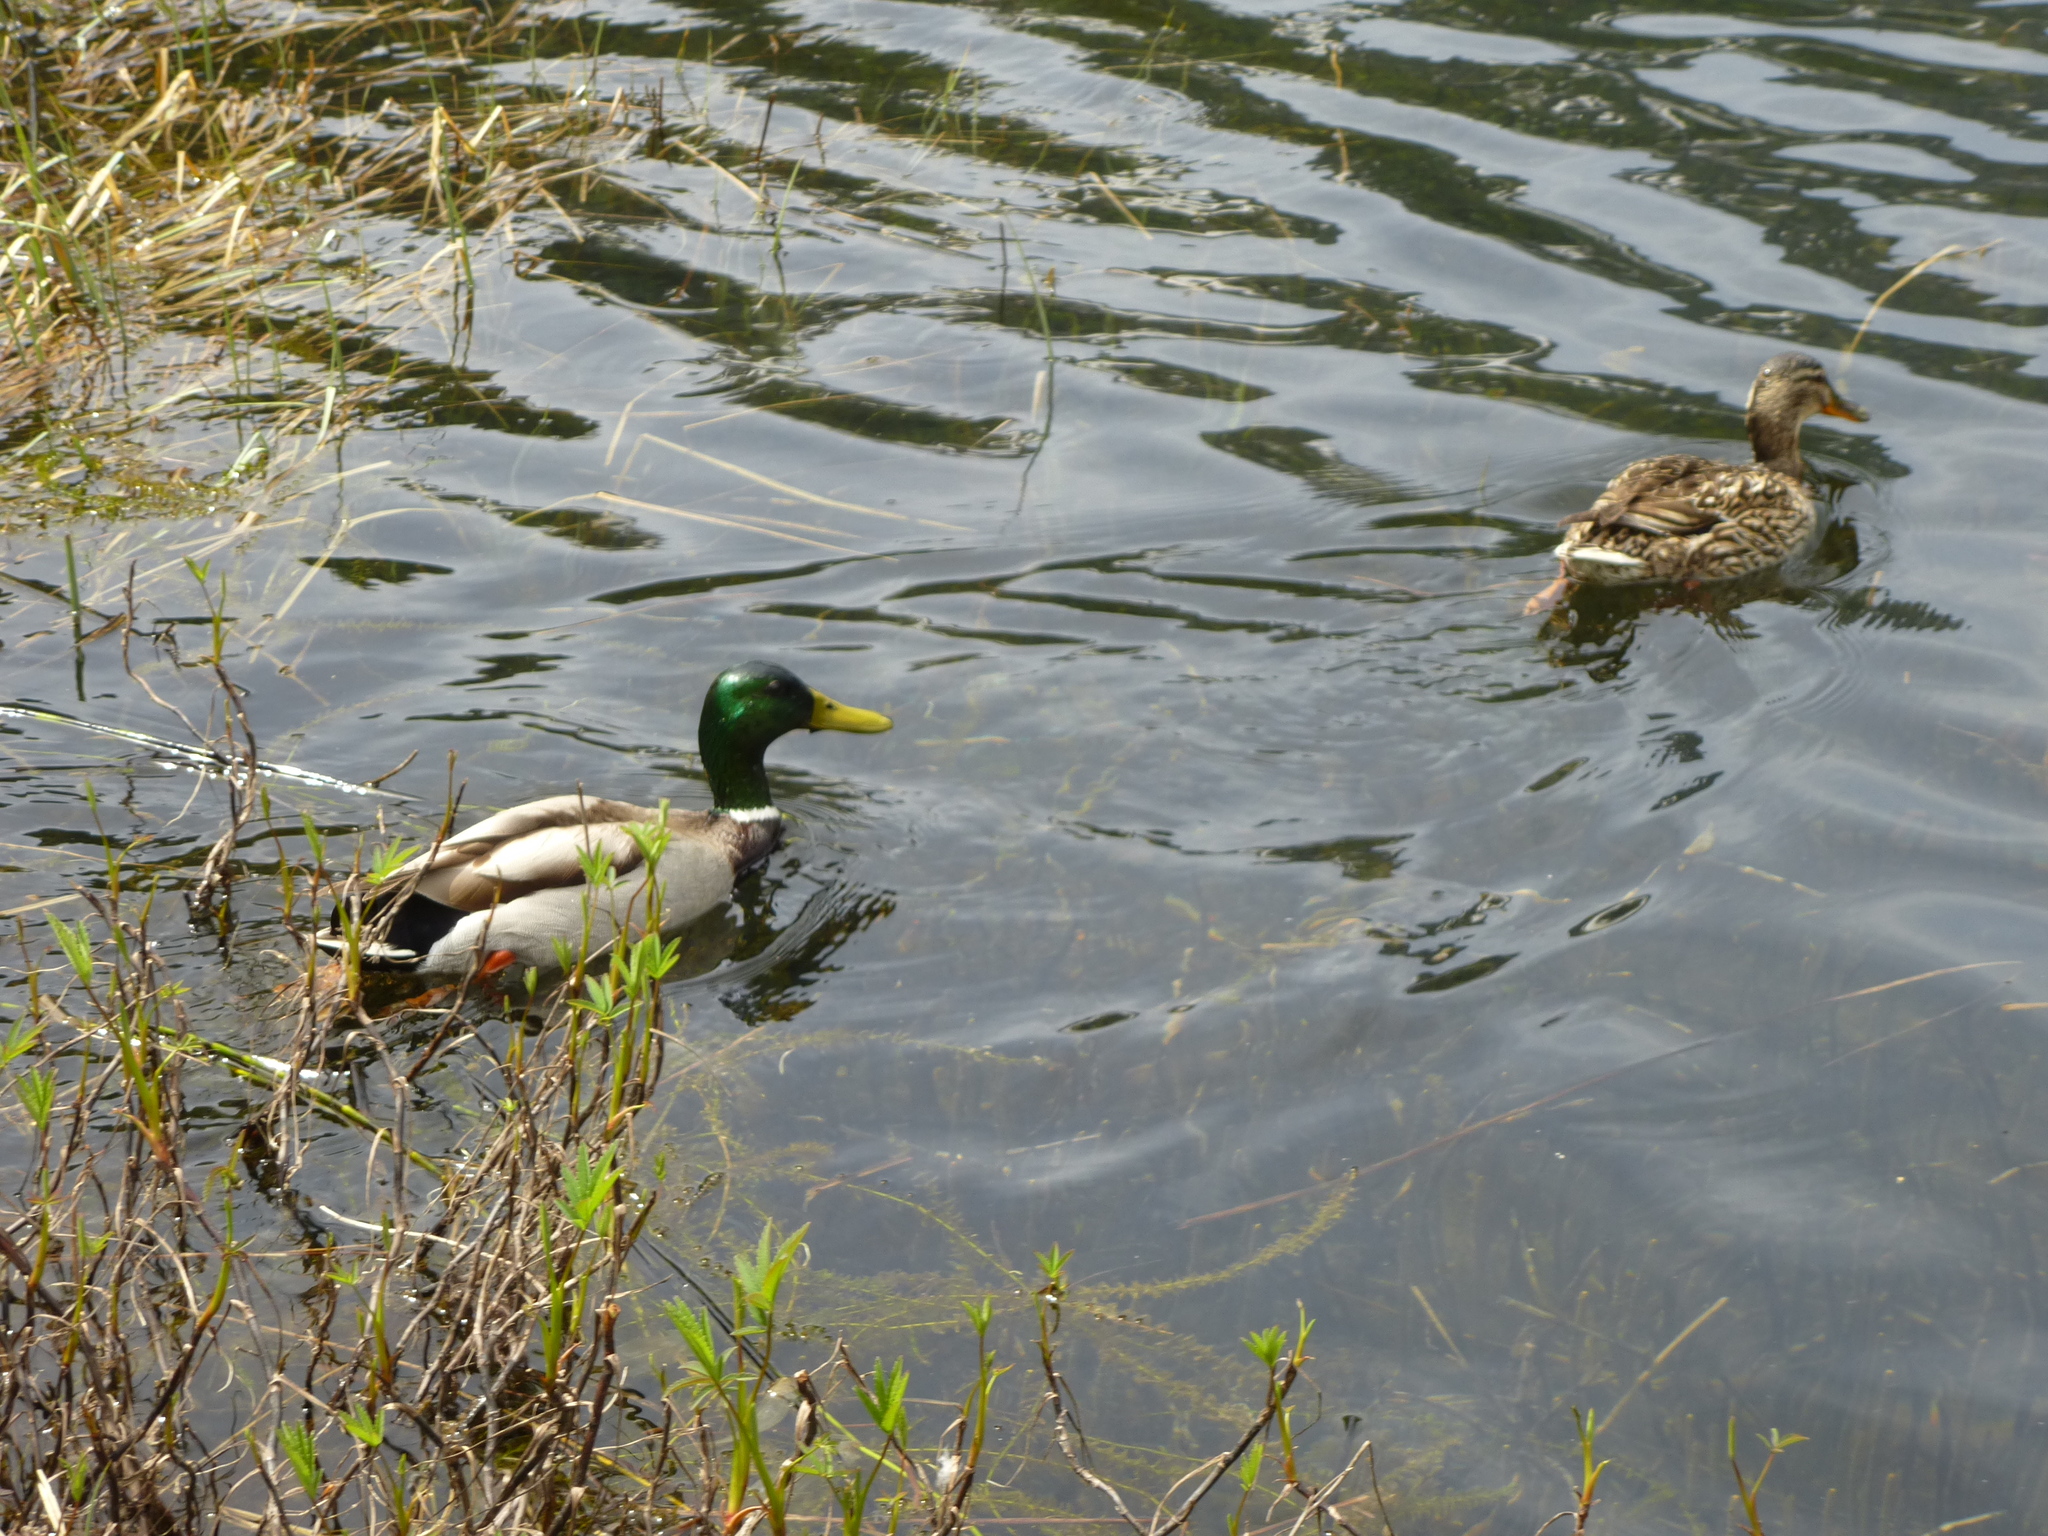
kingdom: Animalia
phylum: Chordata
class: Aves
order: Anseriformes
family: Anatidae
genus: Anas
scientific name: Anas platyrhynchos
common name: Mallard
